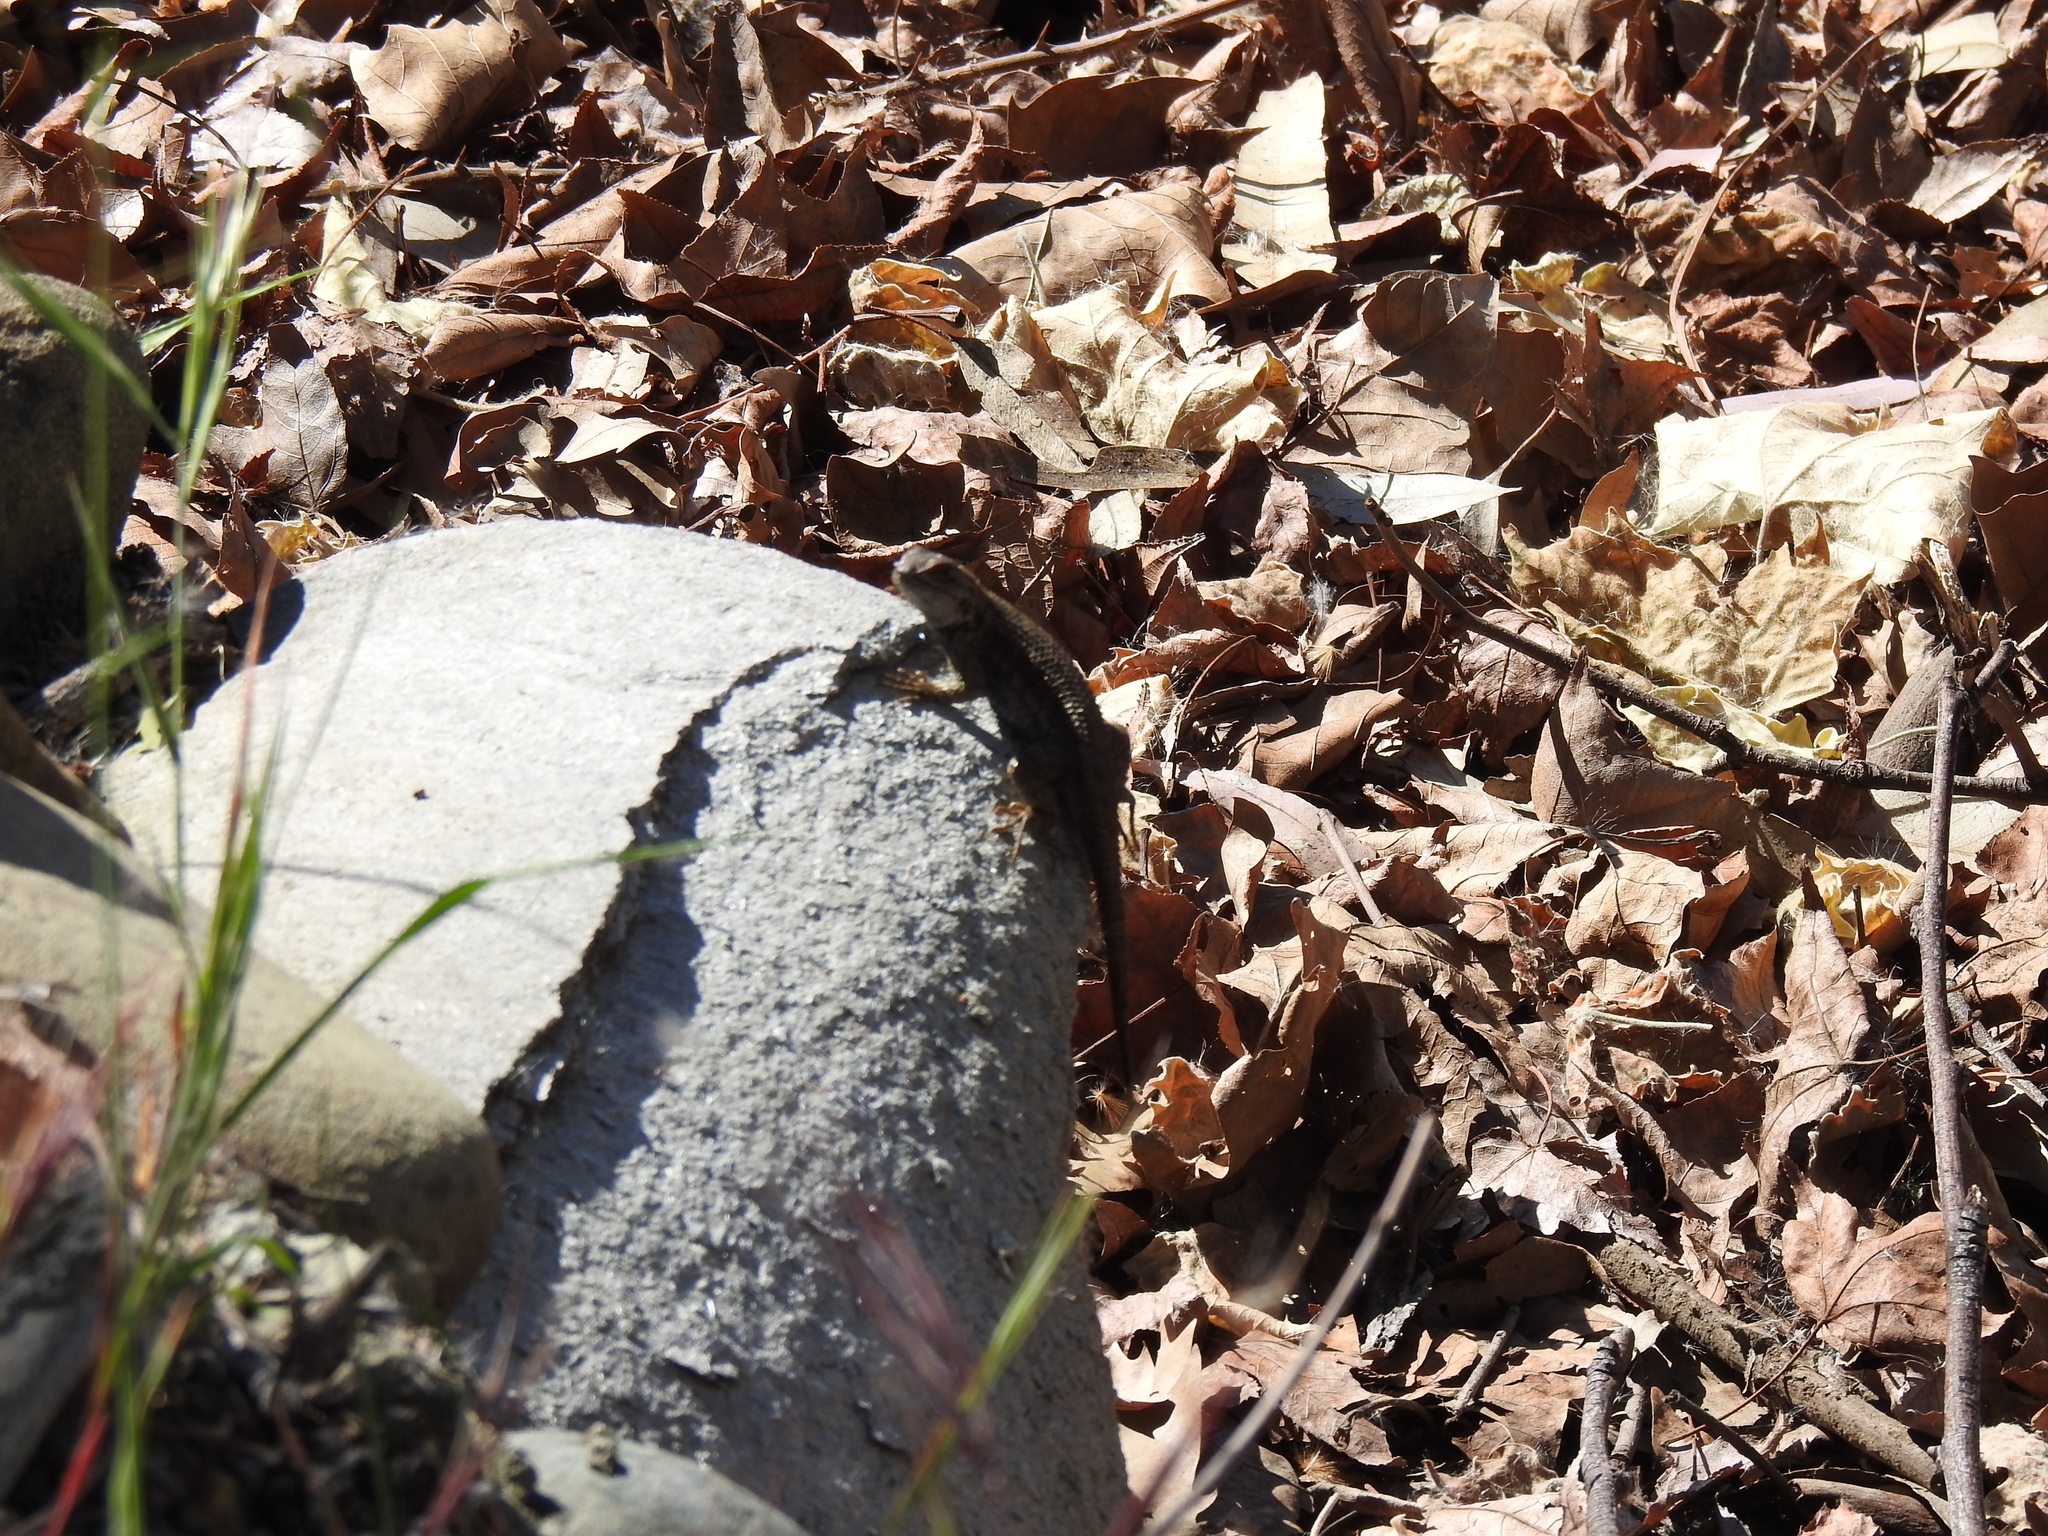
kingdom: Animalia
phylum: Chordata
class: Squamata
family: Phrynosomatidae
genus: Sceloporus
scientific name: Sceloporus occidentalis
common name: Western fence lizard
